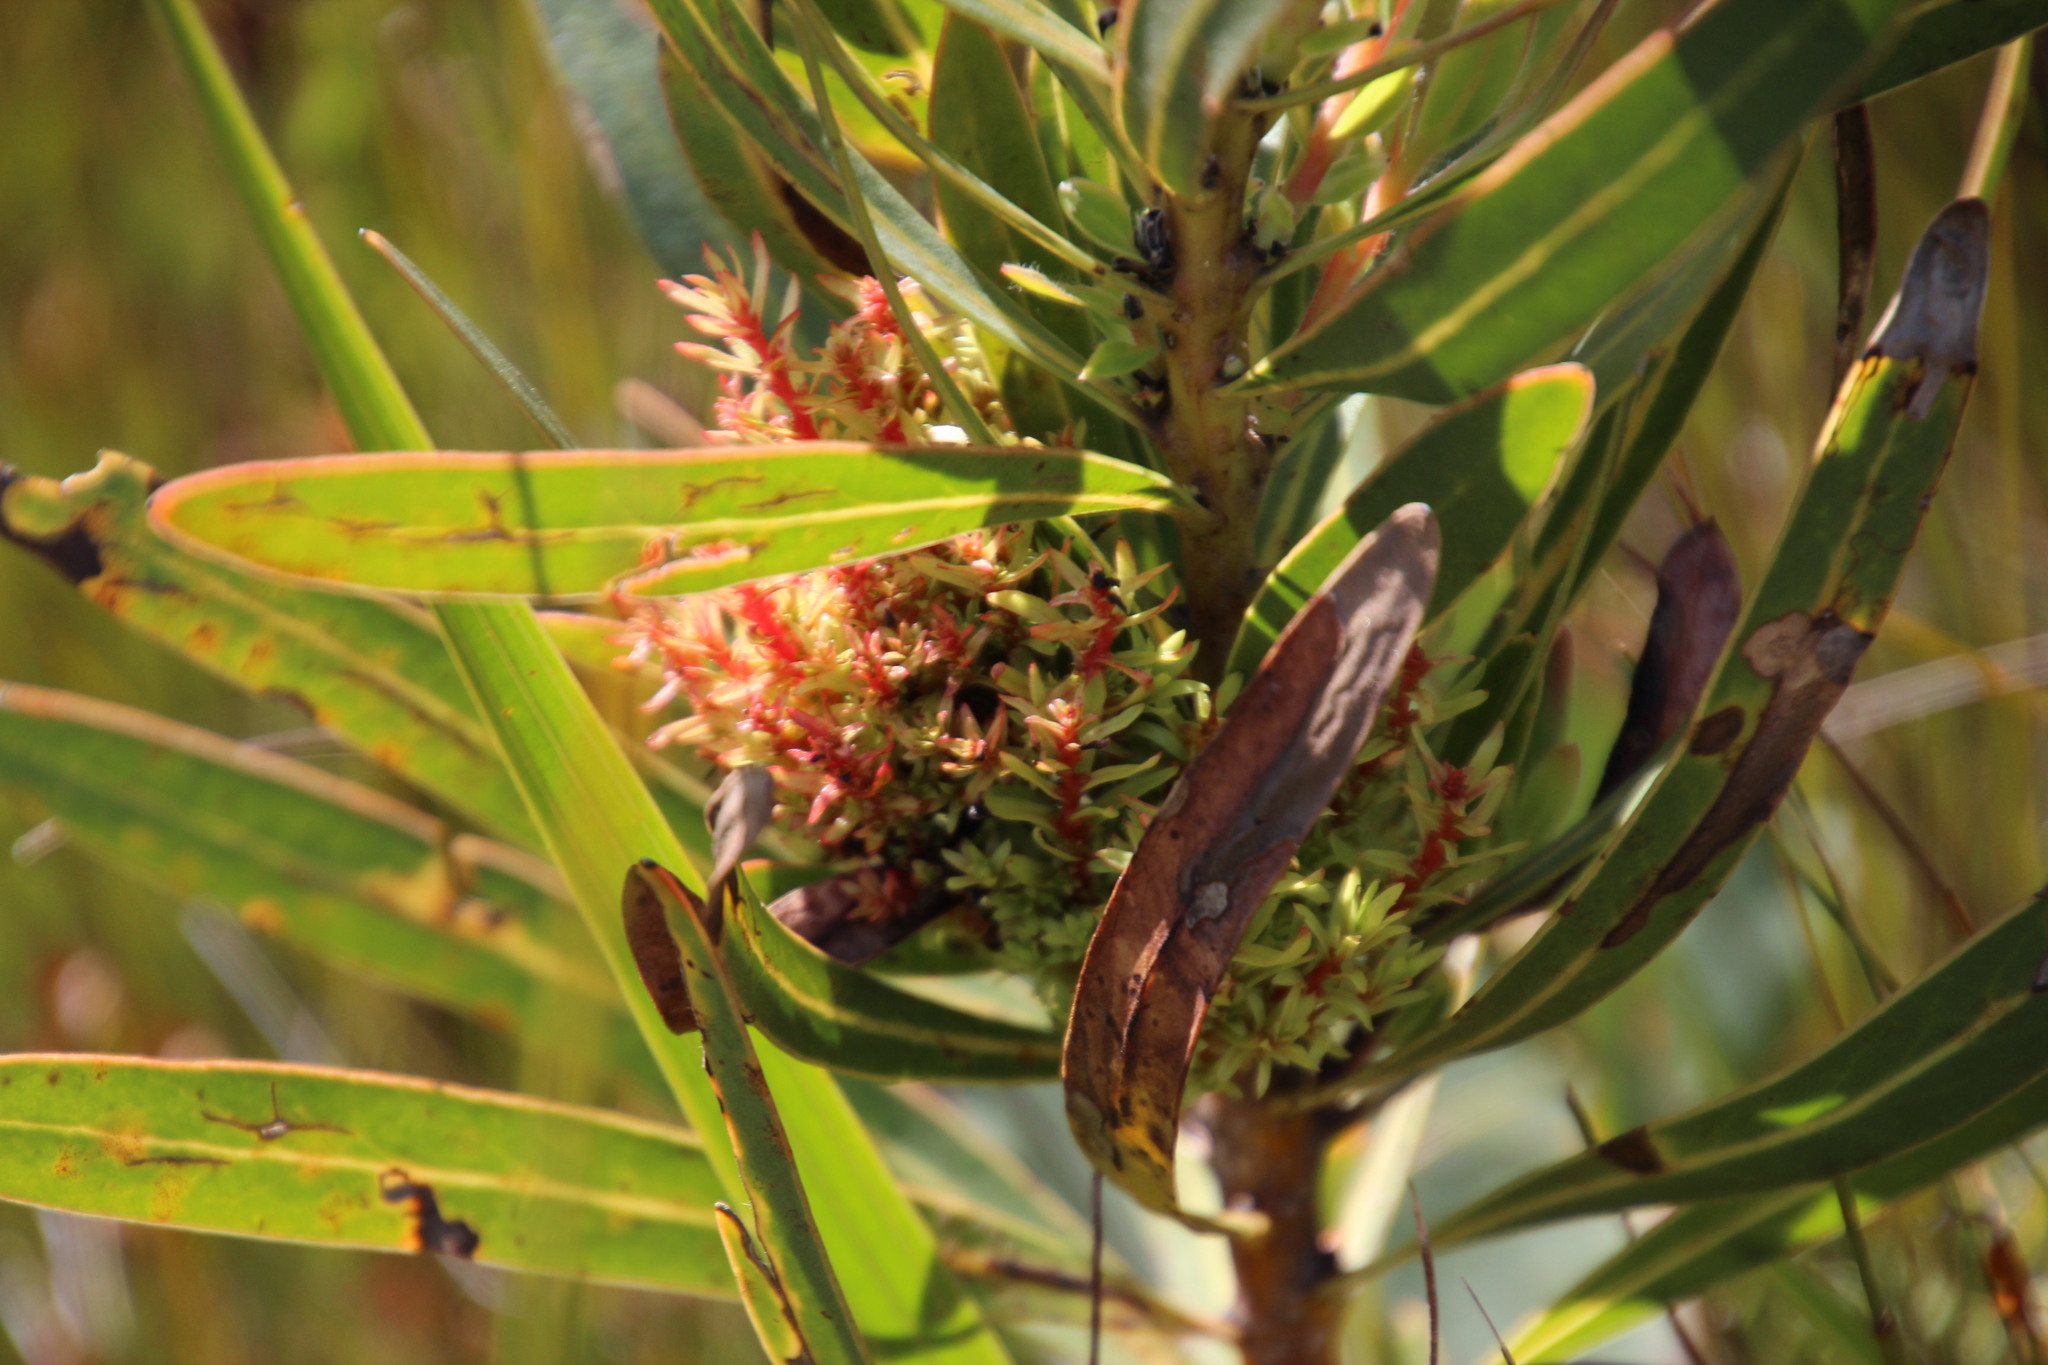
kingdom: Bacteria
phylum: Firmicutes
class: Bacilli
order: Acholeplasmatales
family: Acholeplasmataceae
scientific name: Acholeplasmataceae
